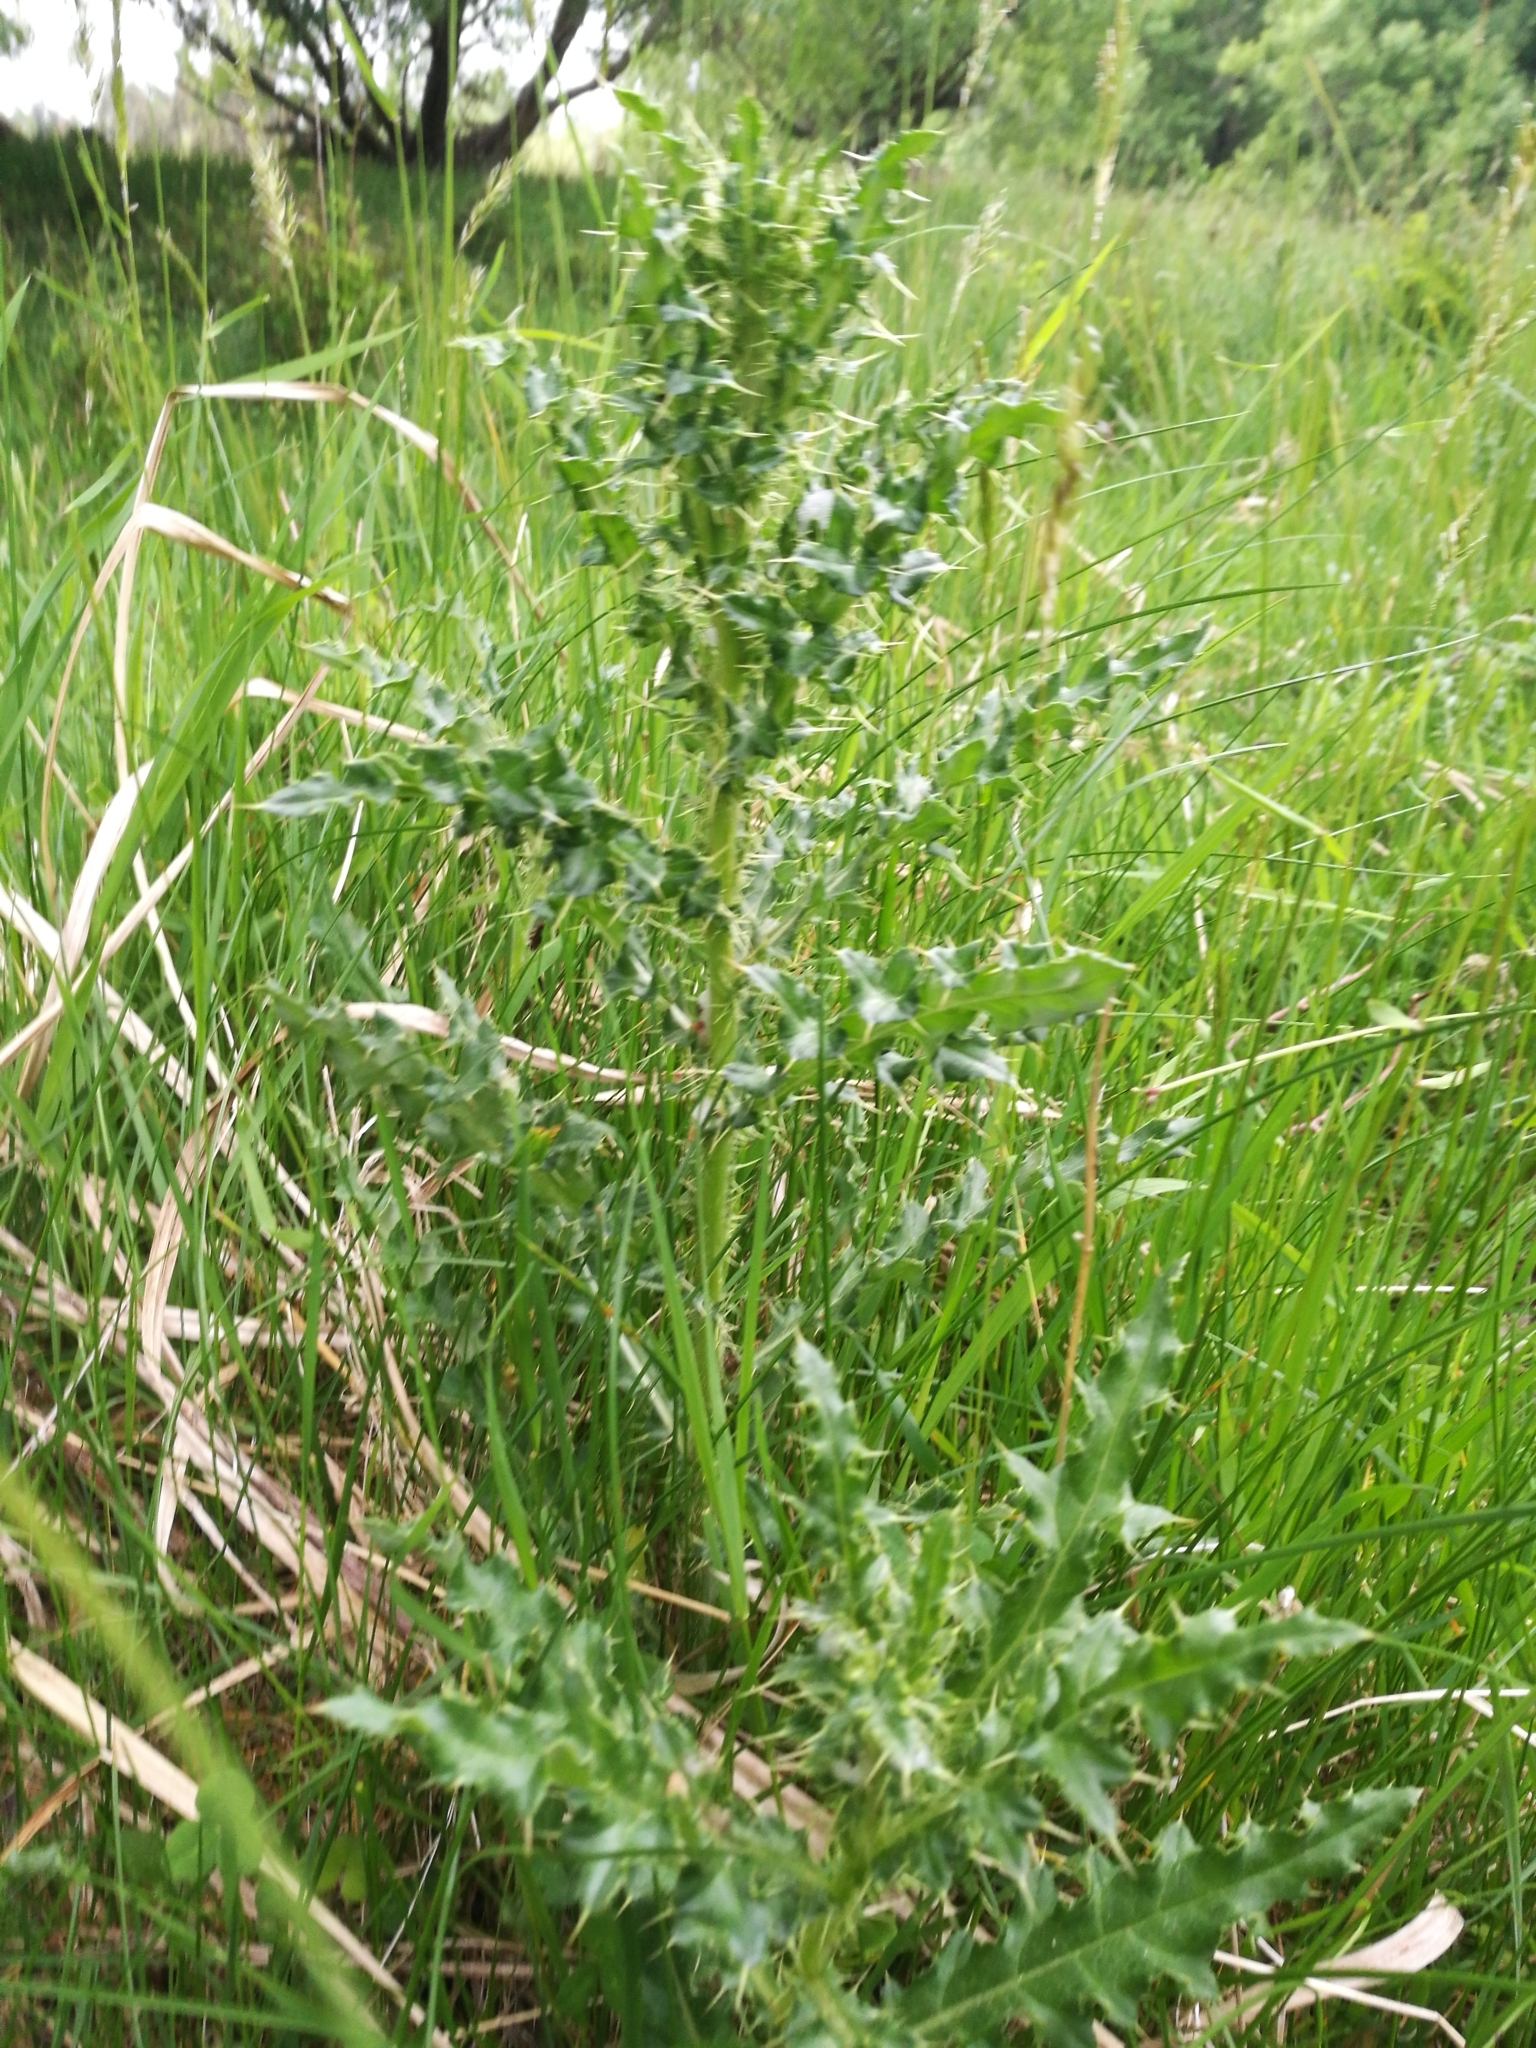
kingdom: Plantae
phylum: Tracheophyta
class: Magnoliopsida
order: Asterales
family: Asteraceae
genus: Cirsium
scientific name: Cirsium arvense
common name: Creeping thistle
